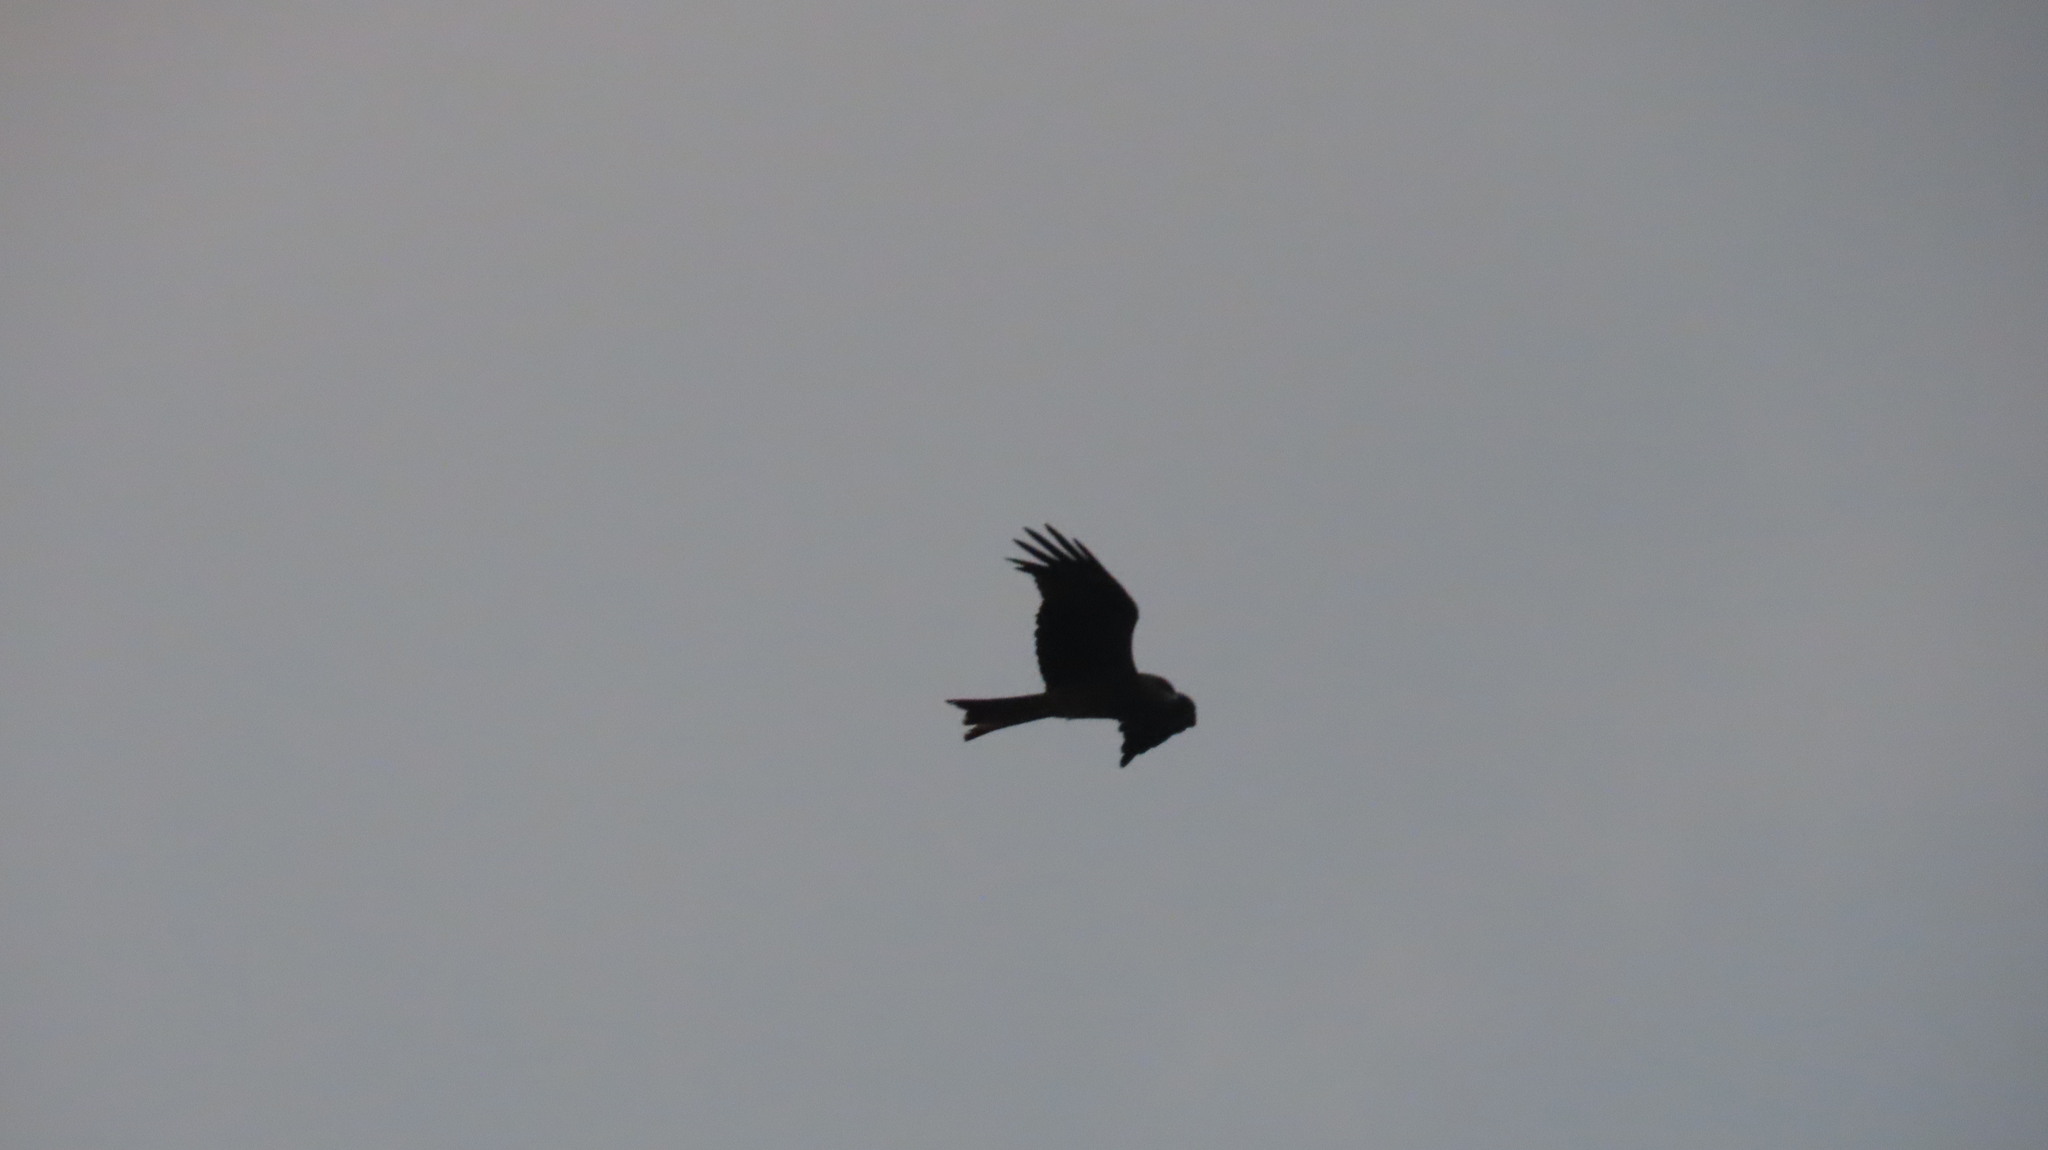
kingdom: Animalia
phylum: Chordata
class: Aves
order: Accipitriformes
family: Accipitridae
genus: Milvus
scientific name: Milvus migrans
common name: Black kite
